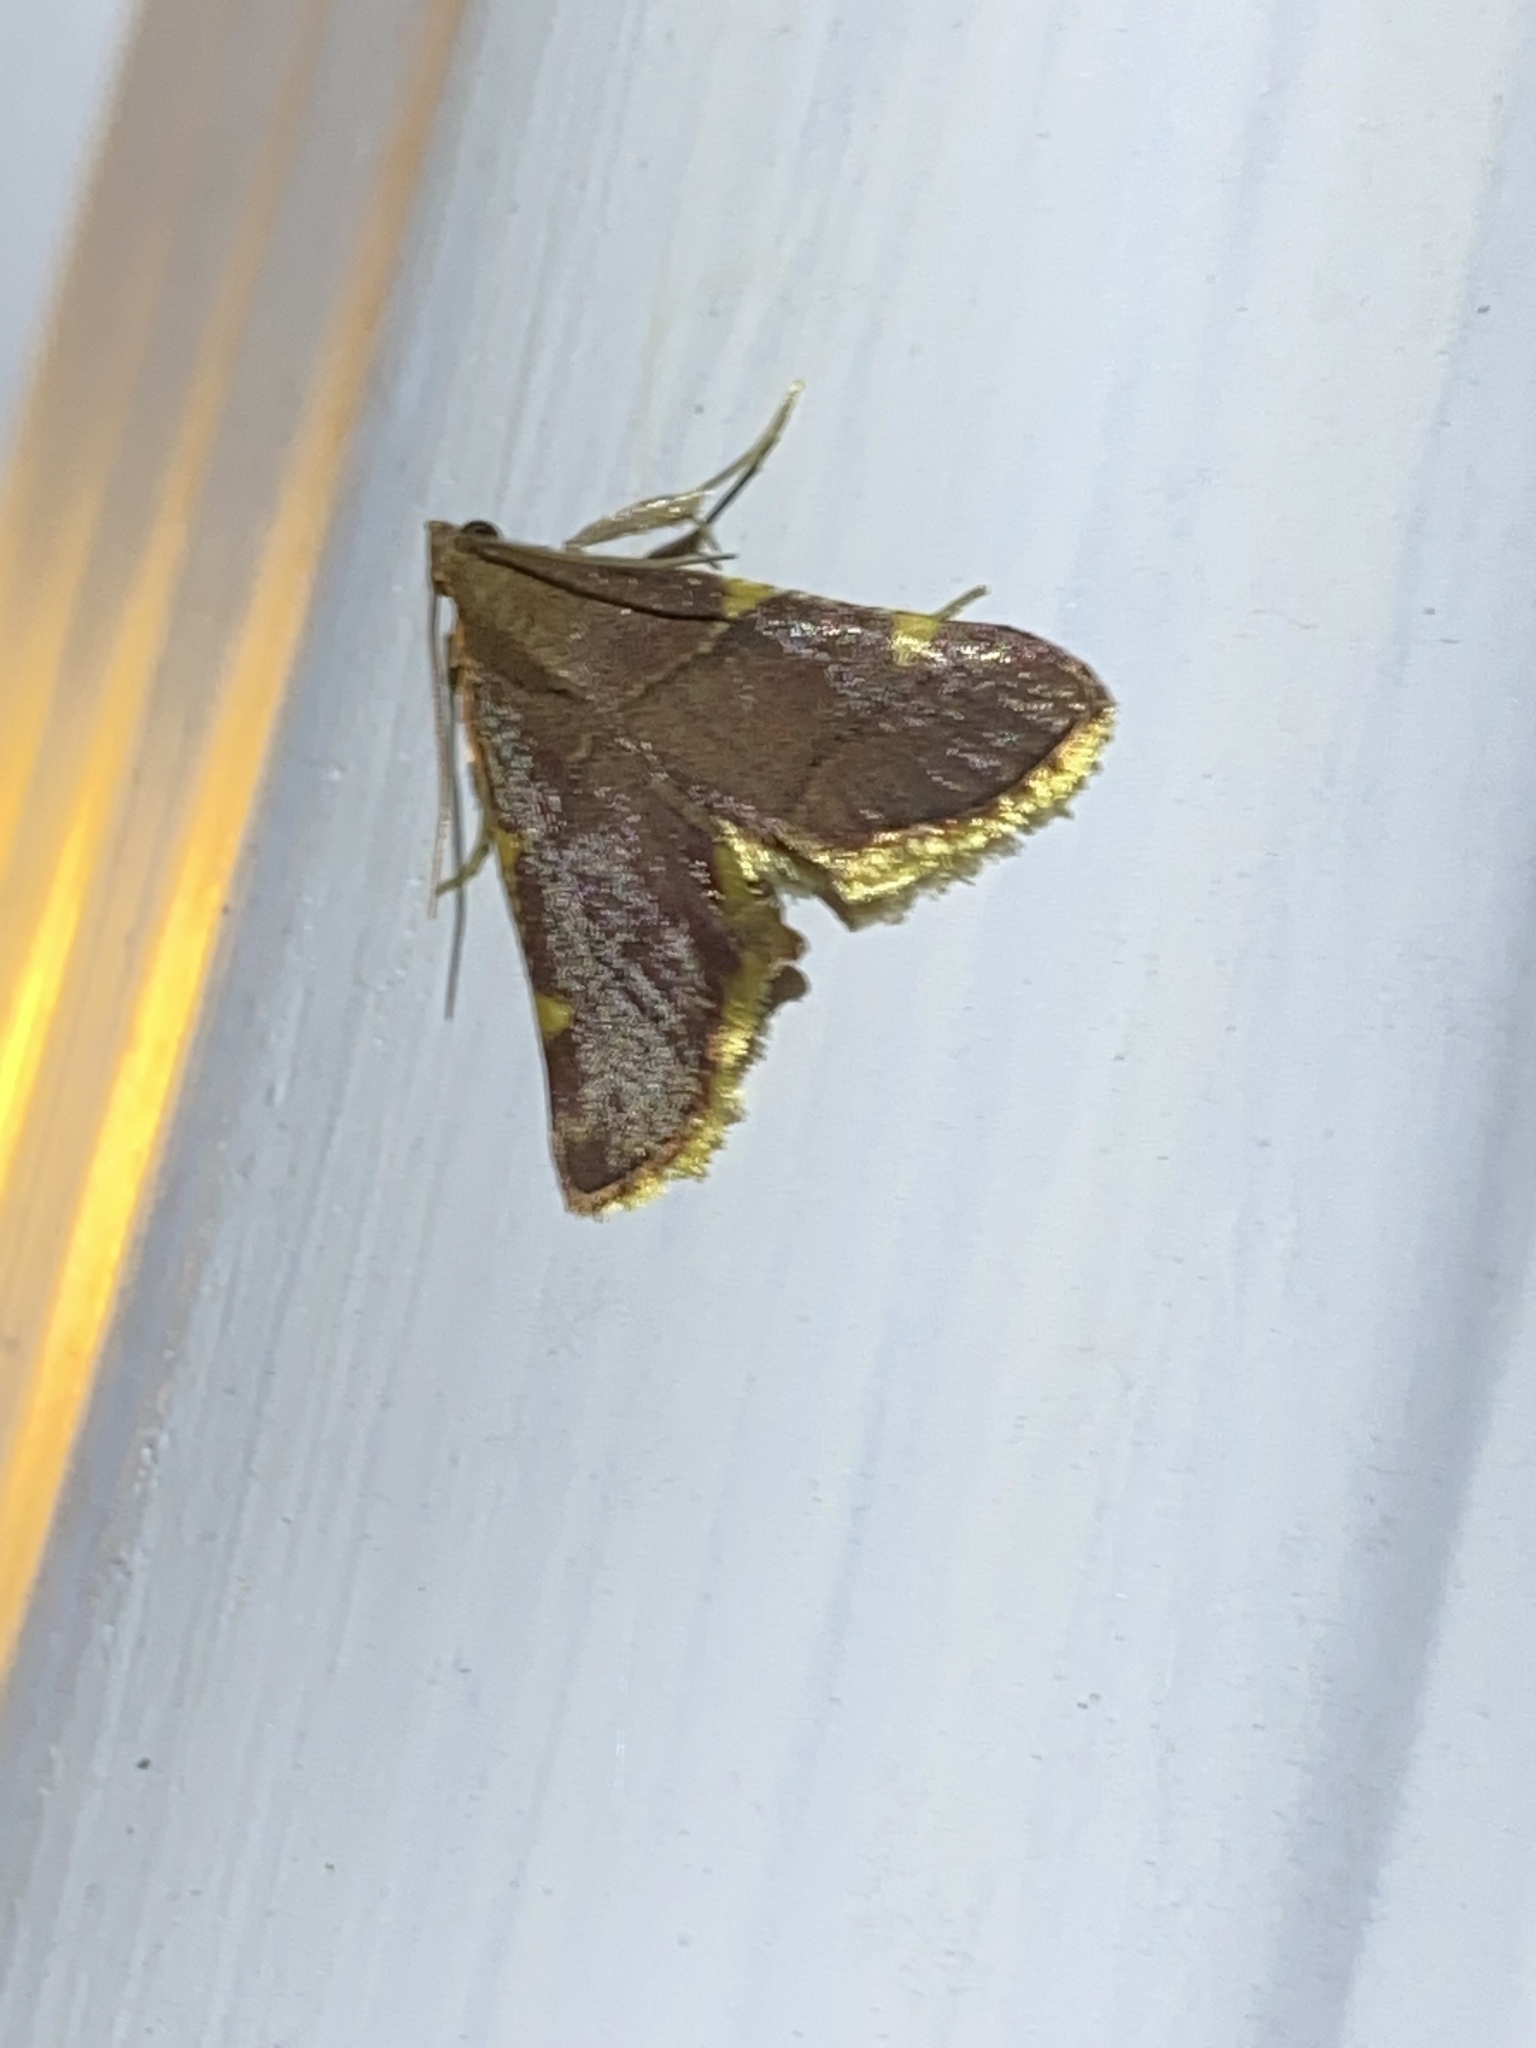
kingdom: Animalia
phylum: Arthropoda
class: Insecta
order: Lepidoptera
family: Pyralidae
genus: Hypsopygia
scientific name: Hypsopygia olinalis
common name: Yellow-fringed dolichomia moth
